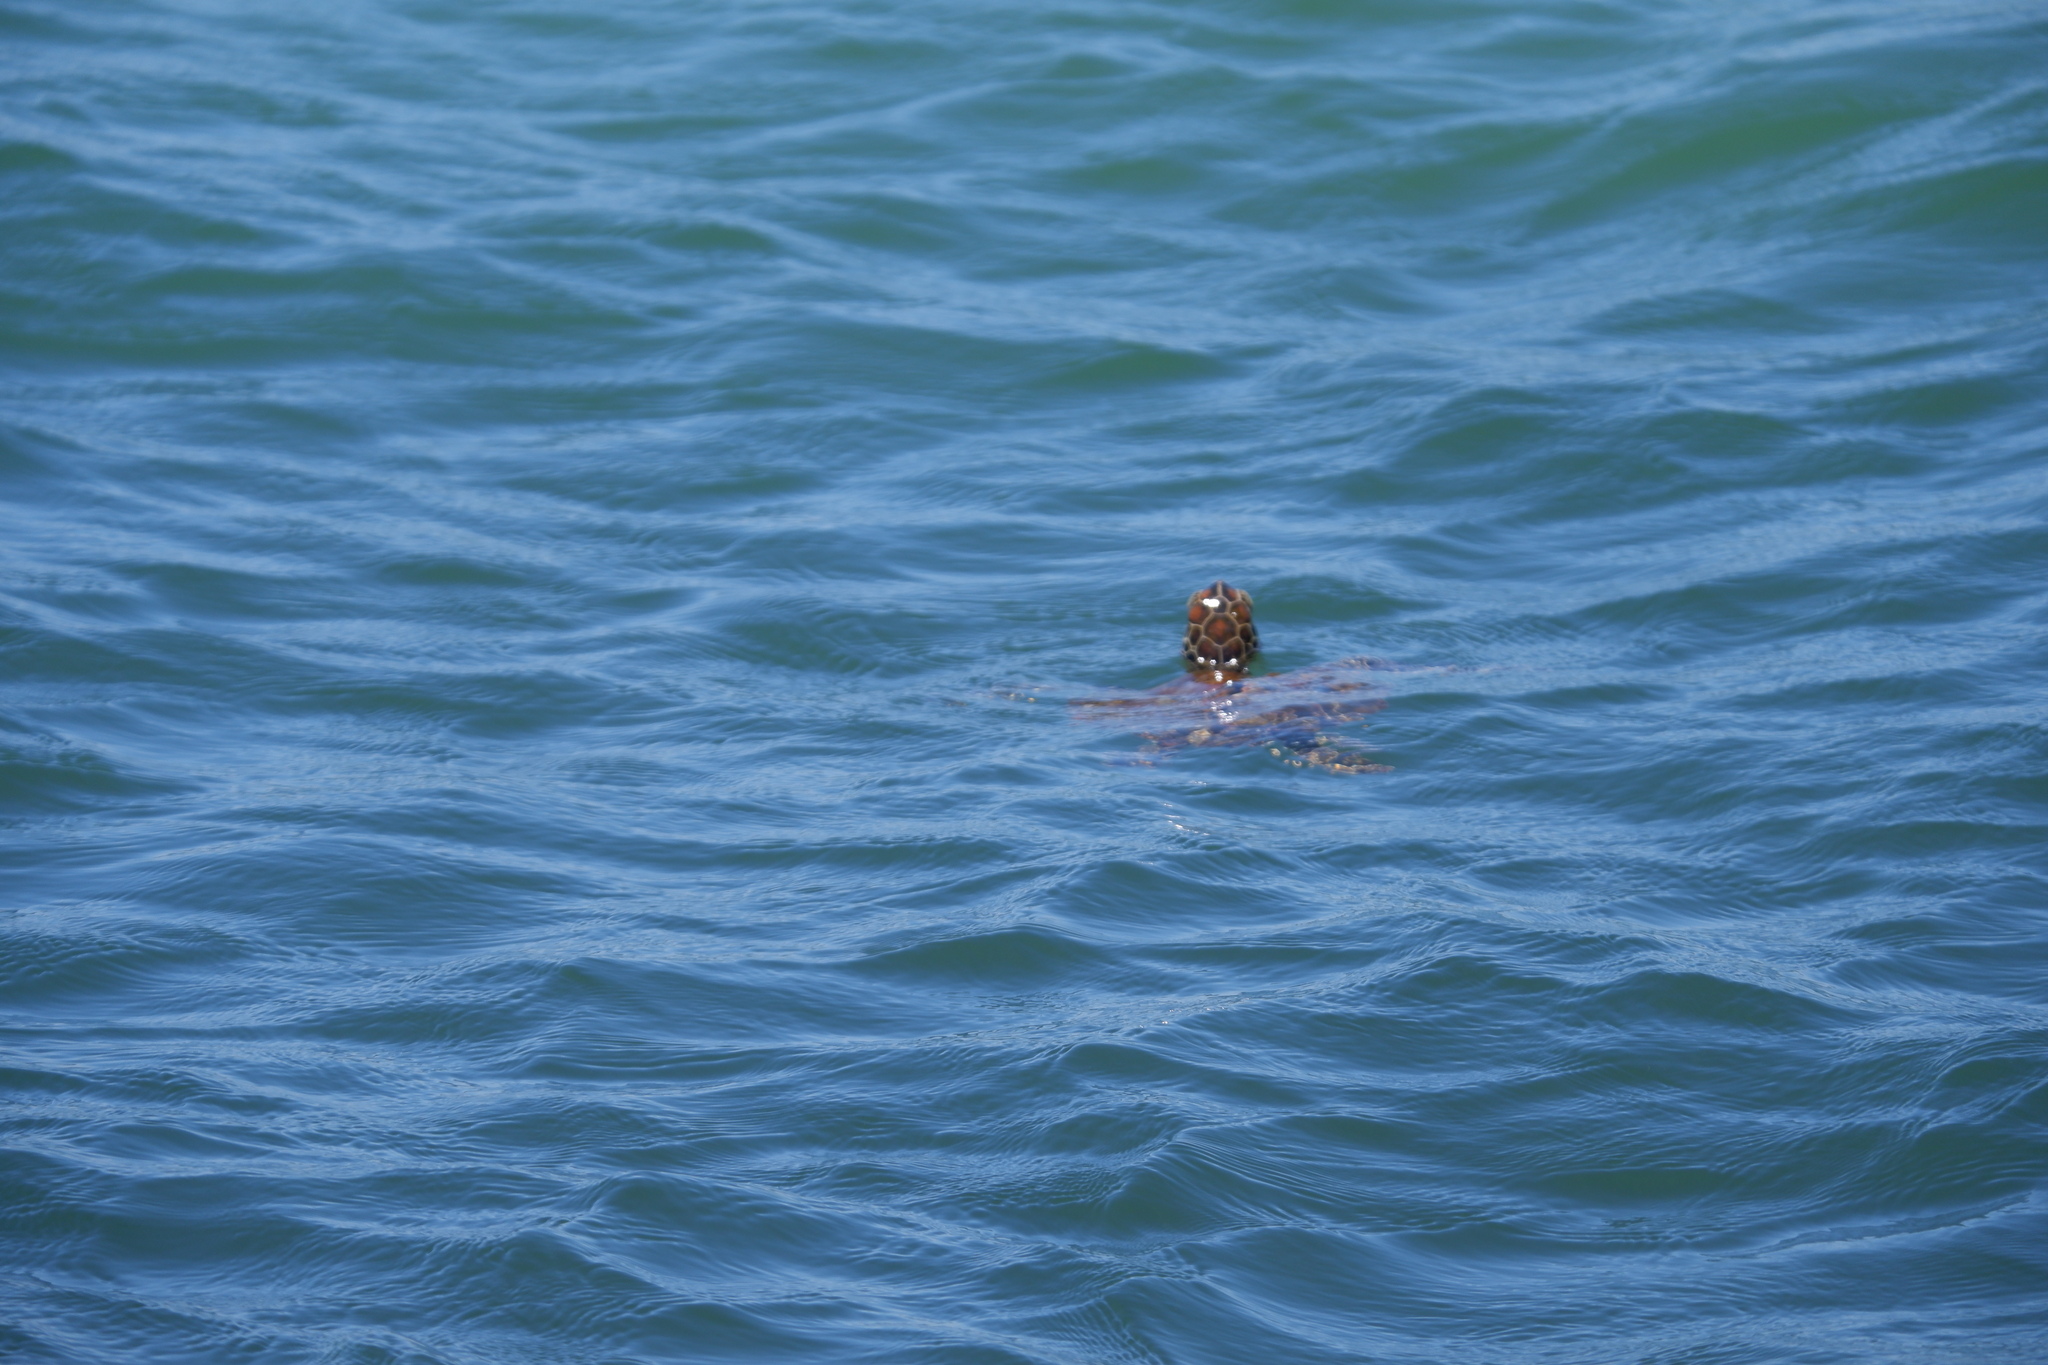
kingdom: Animalia
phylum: Chordata
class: Testudines
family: Cheloniidae
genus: Chelonia
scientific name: Chelonia mydas
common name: Green turtle
